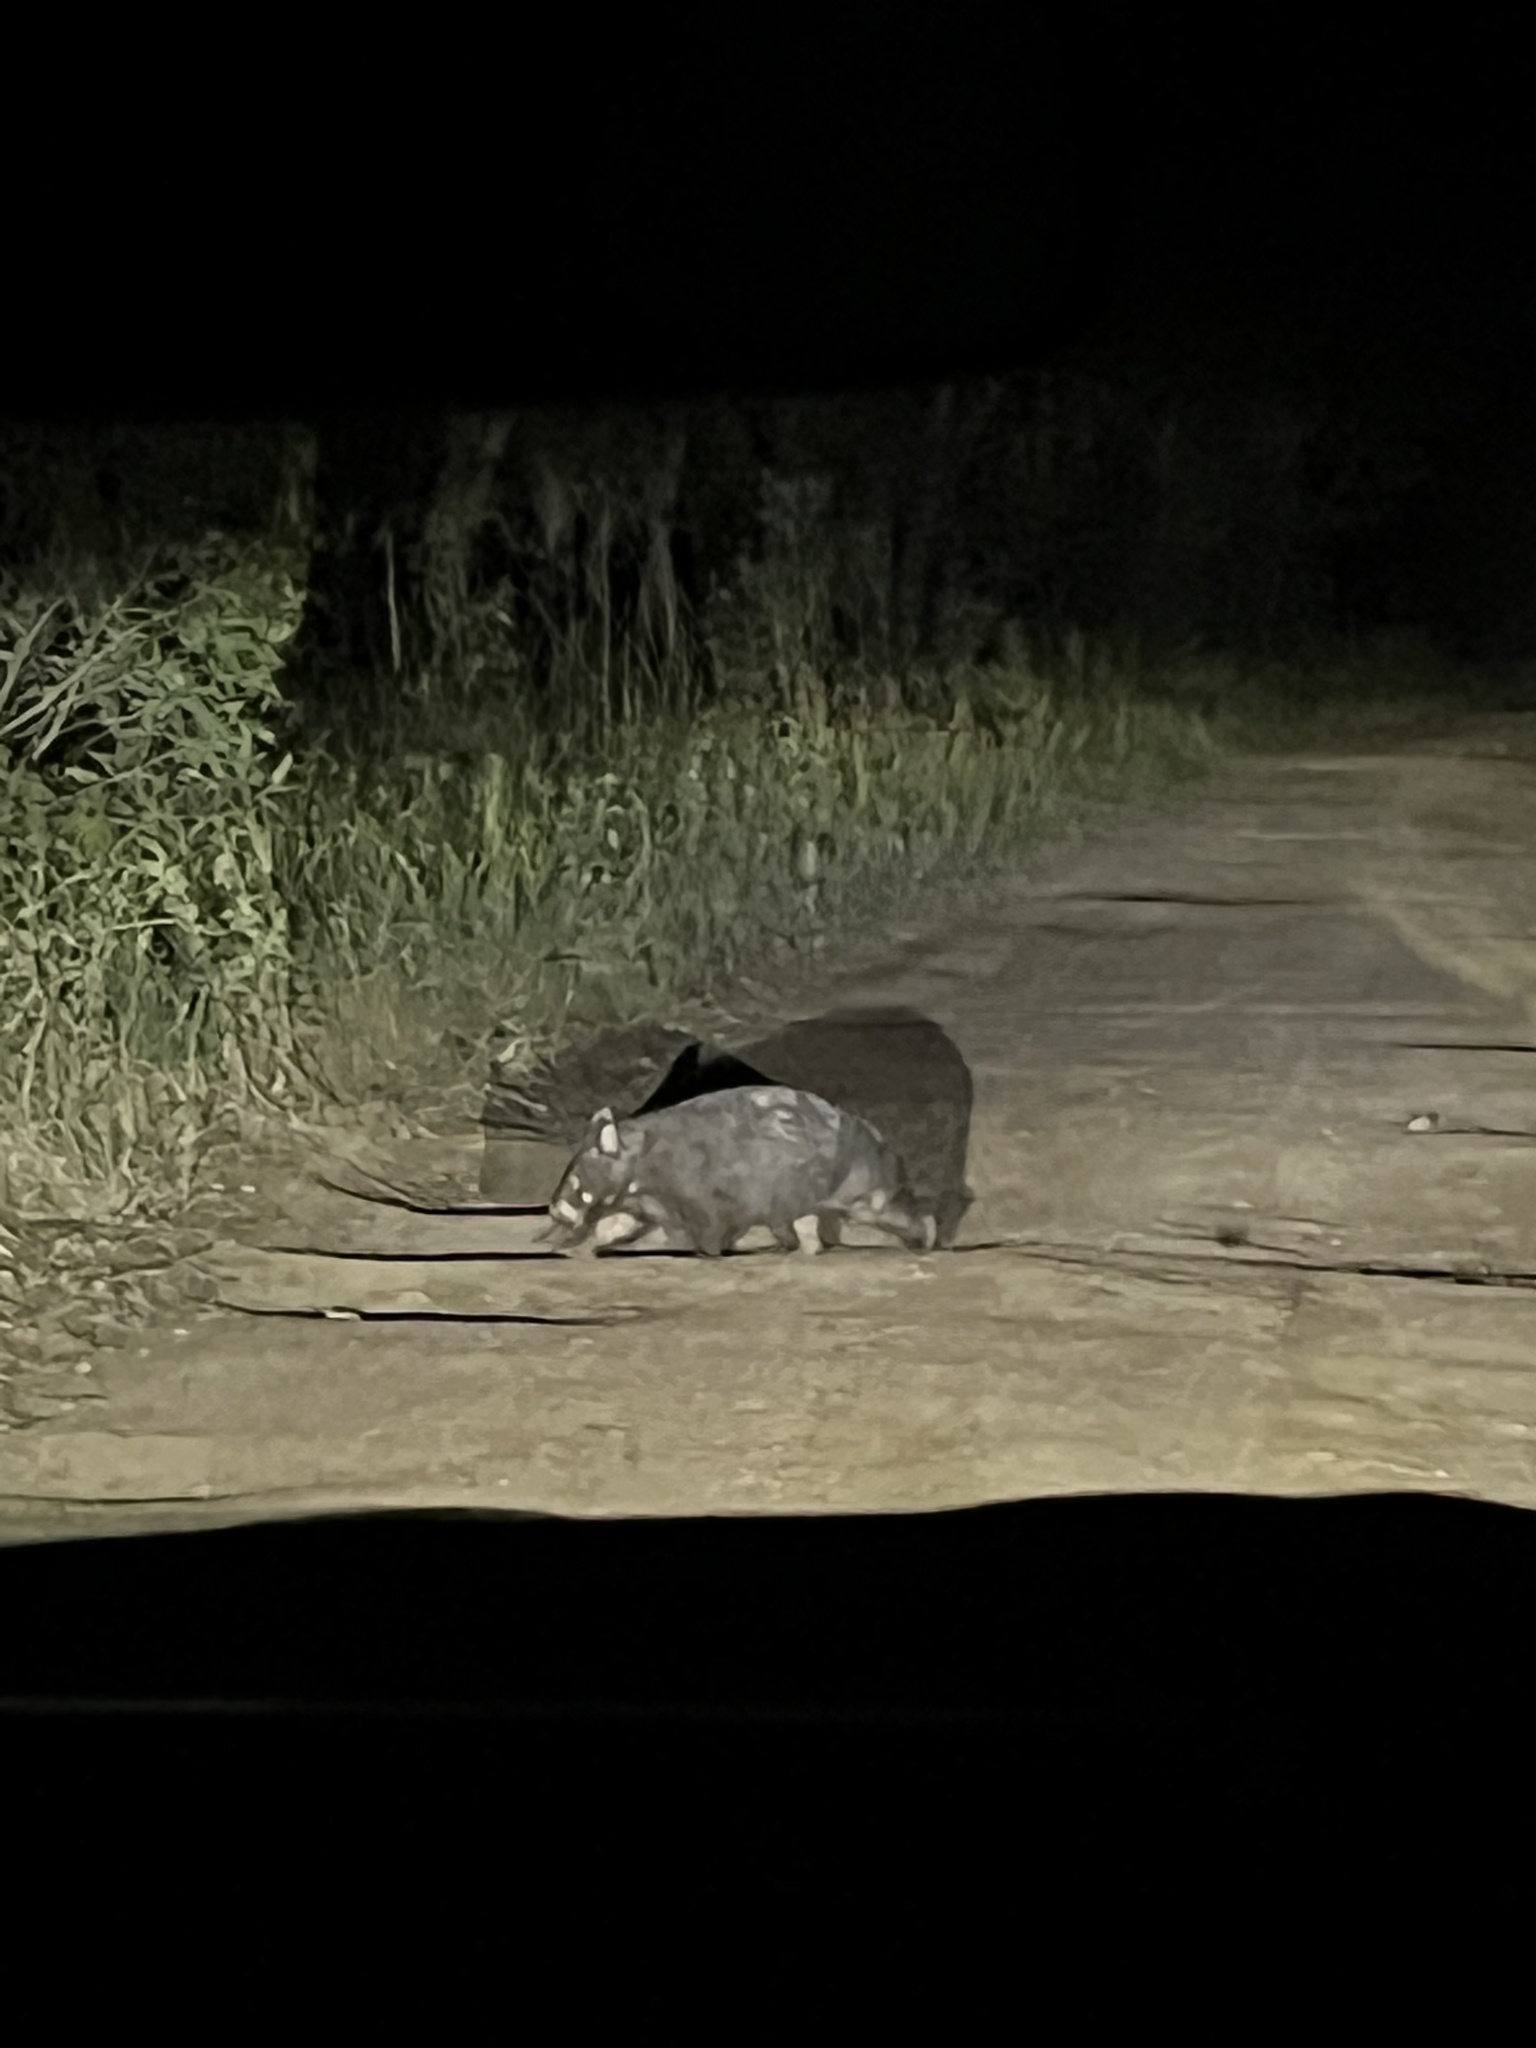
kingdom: Animalia
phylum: Chordata
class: Mammalia
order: Diprotodontia
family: Vombatidae
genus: Vombatus
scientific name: Vombatus ursinus
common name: Common wombat
